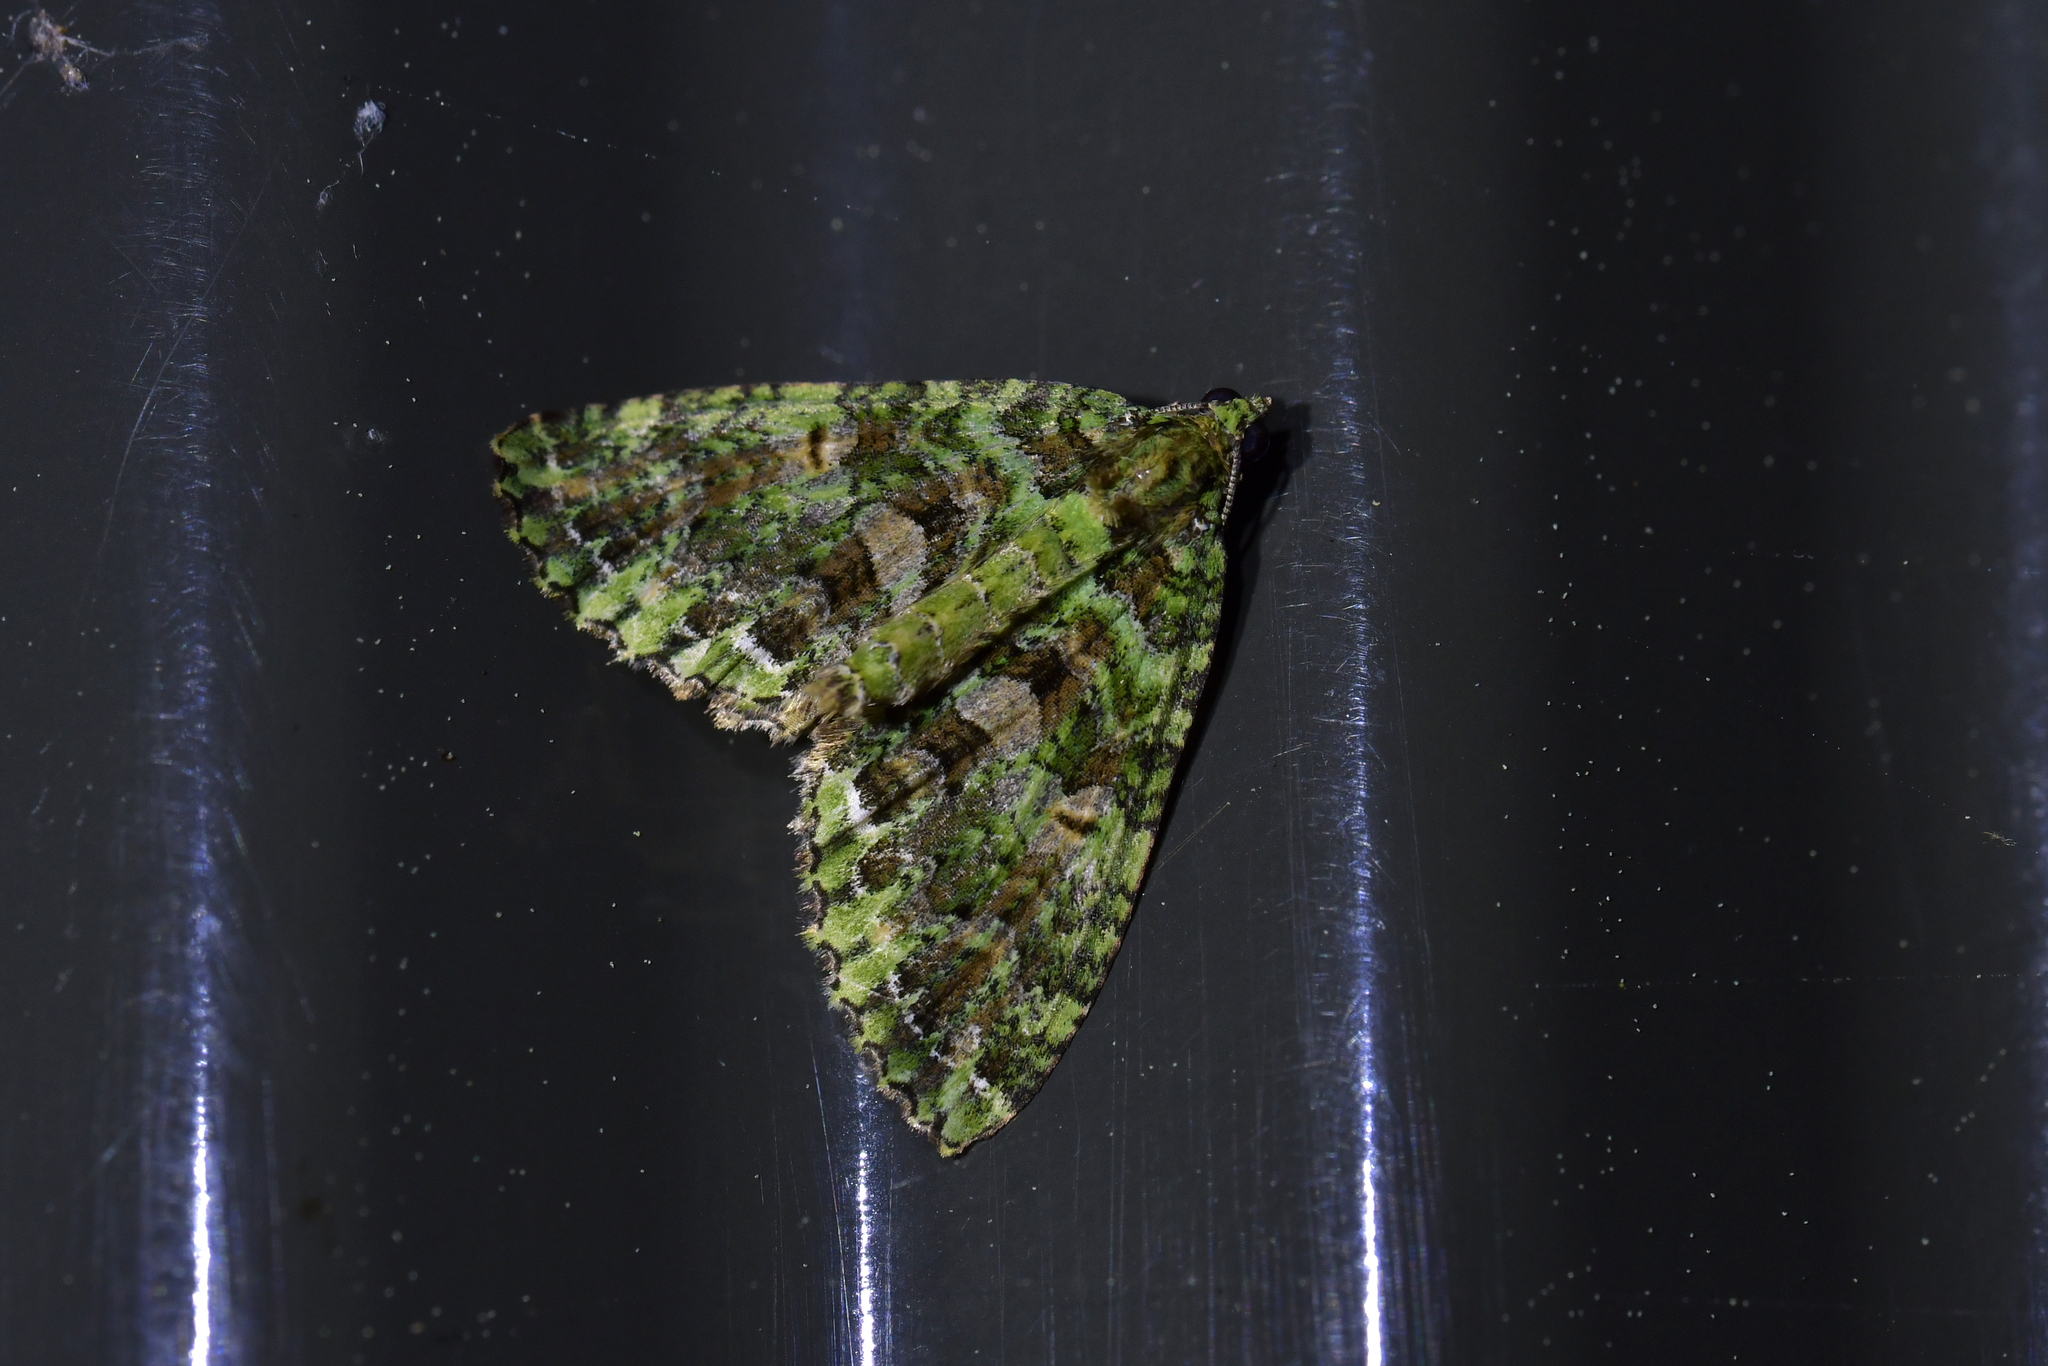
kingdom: Animalia
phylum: Arthropoda
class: Insecta
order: Lepidoptera
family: Geometridae
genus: Austrocidaria
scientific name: Austrocidaria similata
